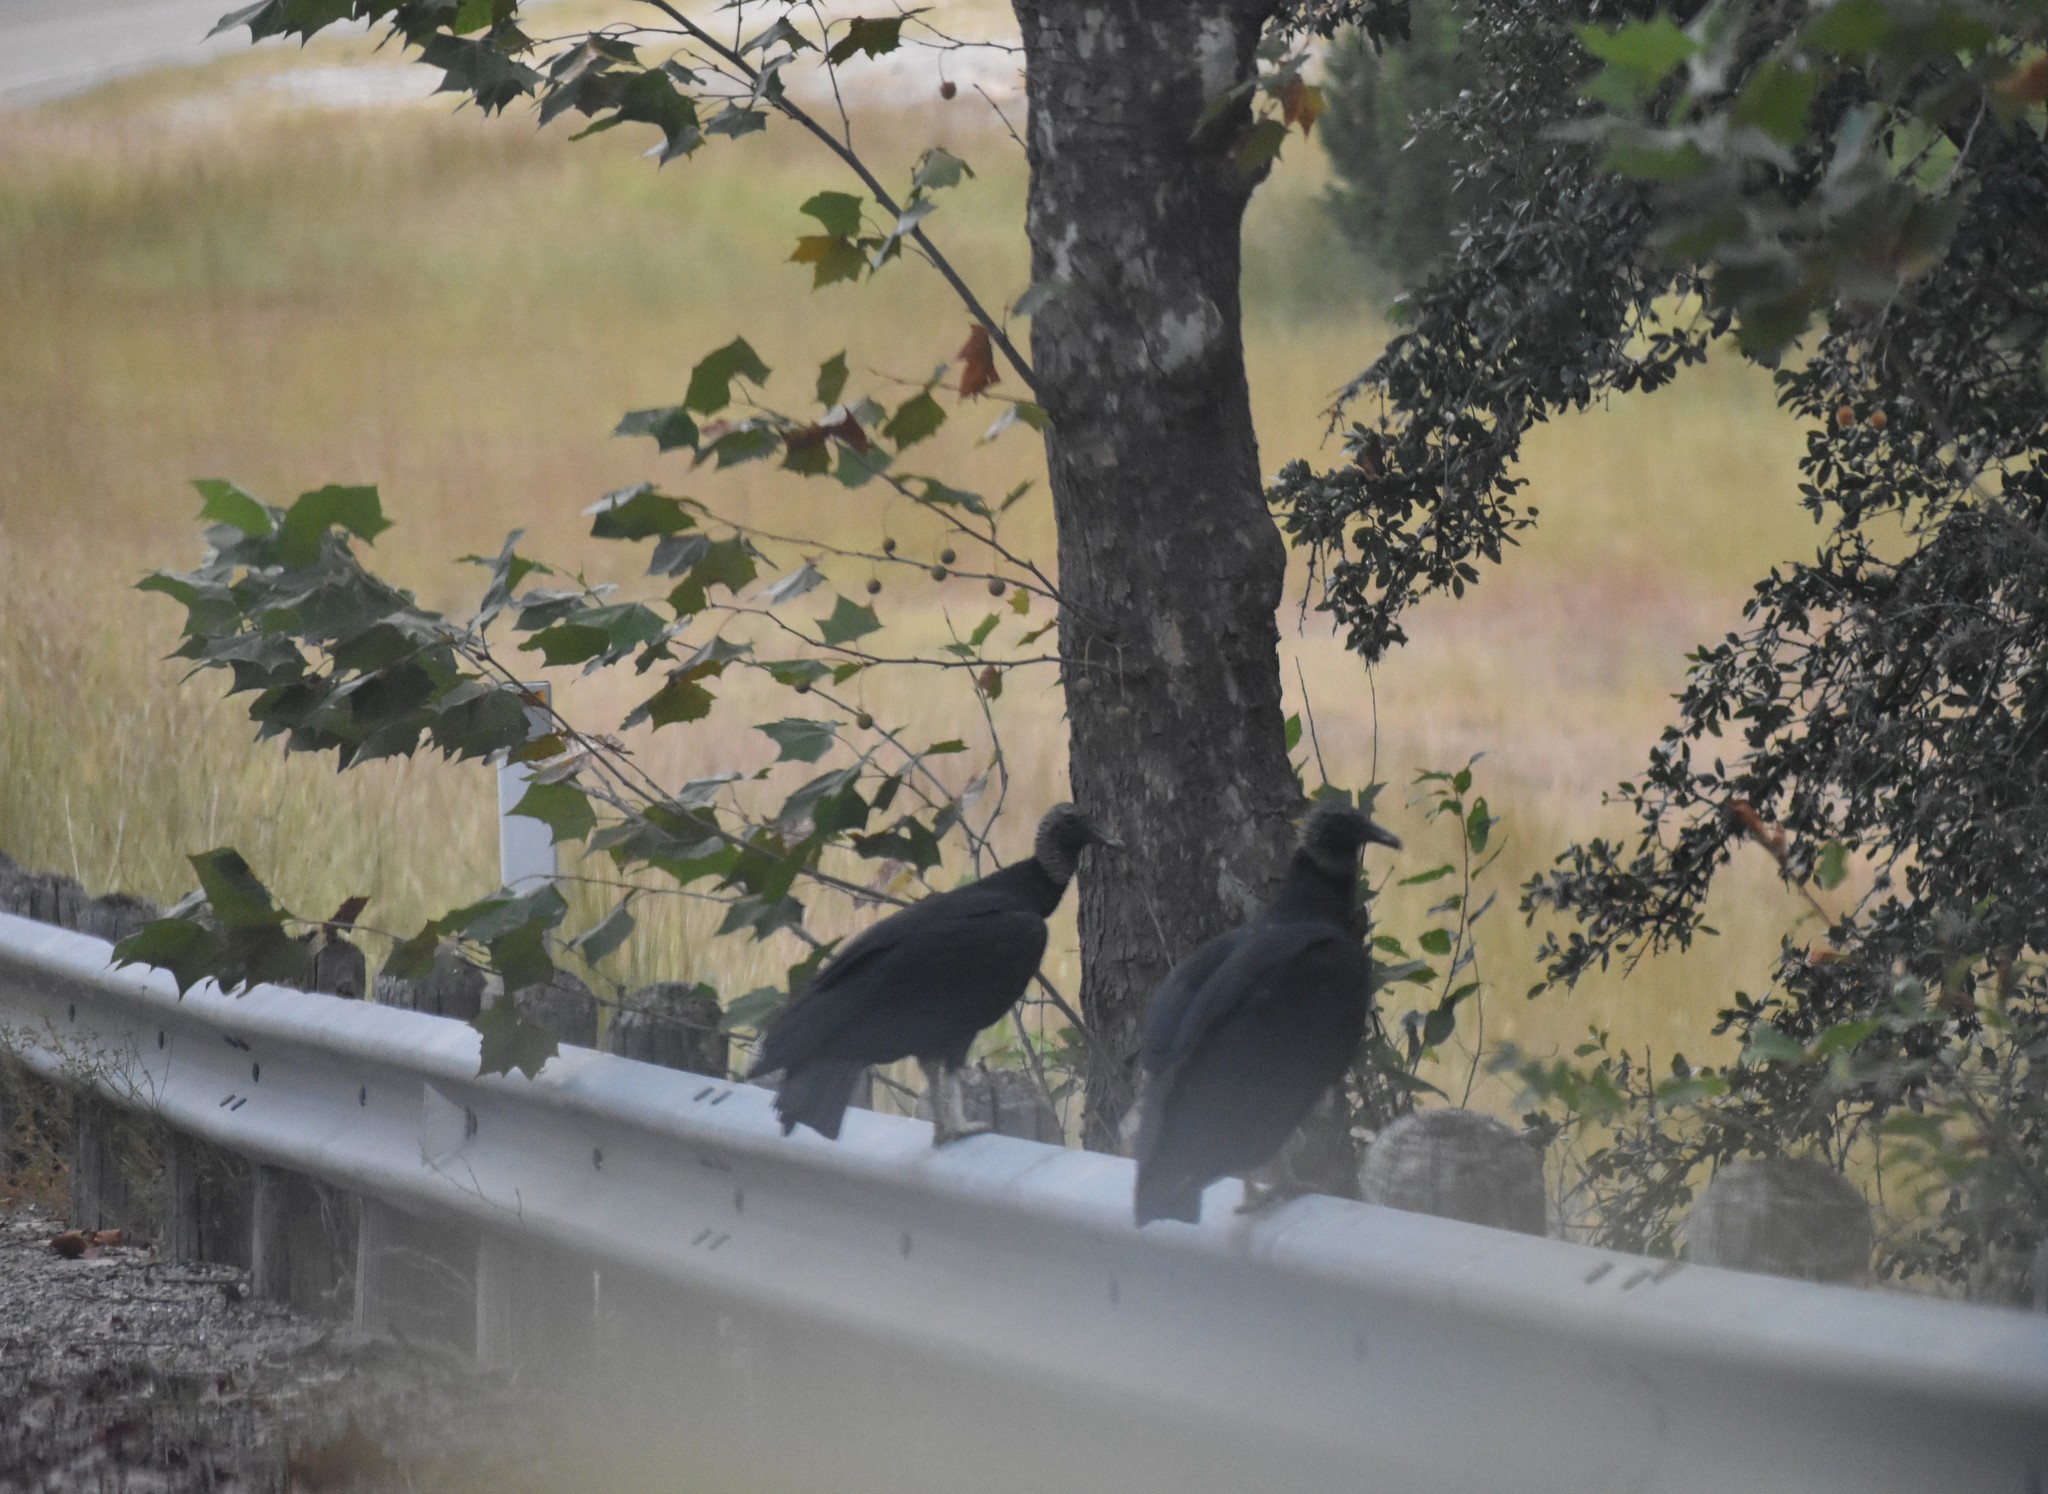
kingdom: Animalia
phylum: Chordata
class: Aves
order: Accipitriformes
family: Cathartidae
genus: Coragyps
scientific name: Coragyps atratus
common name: Black vulture
